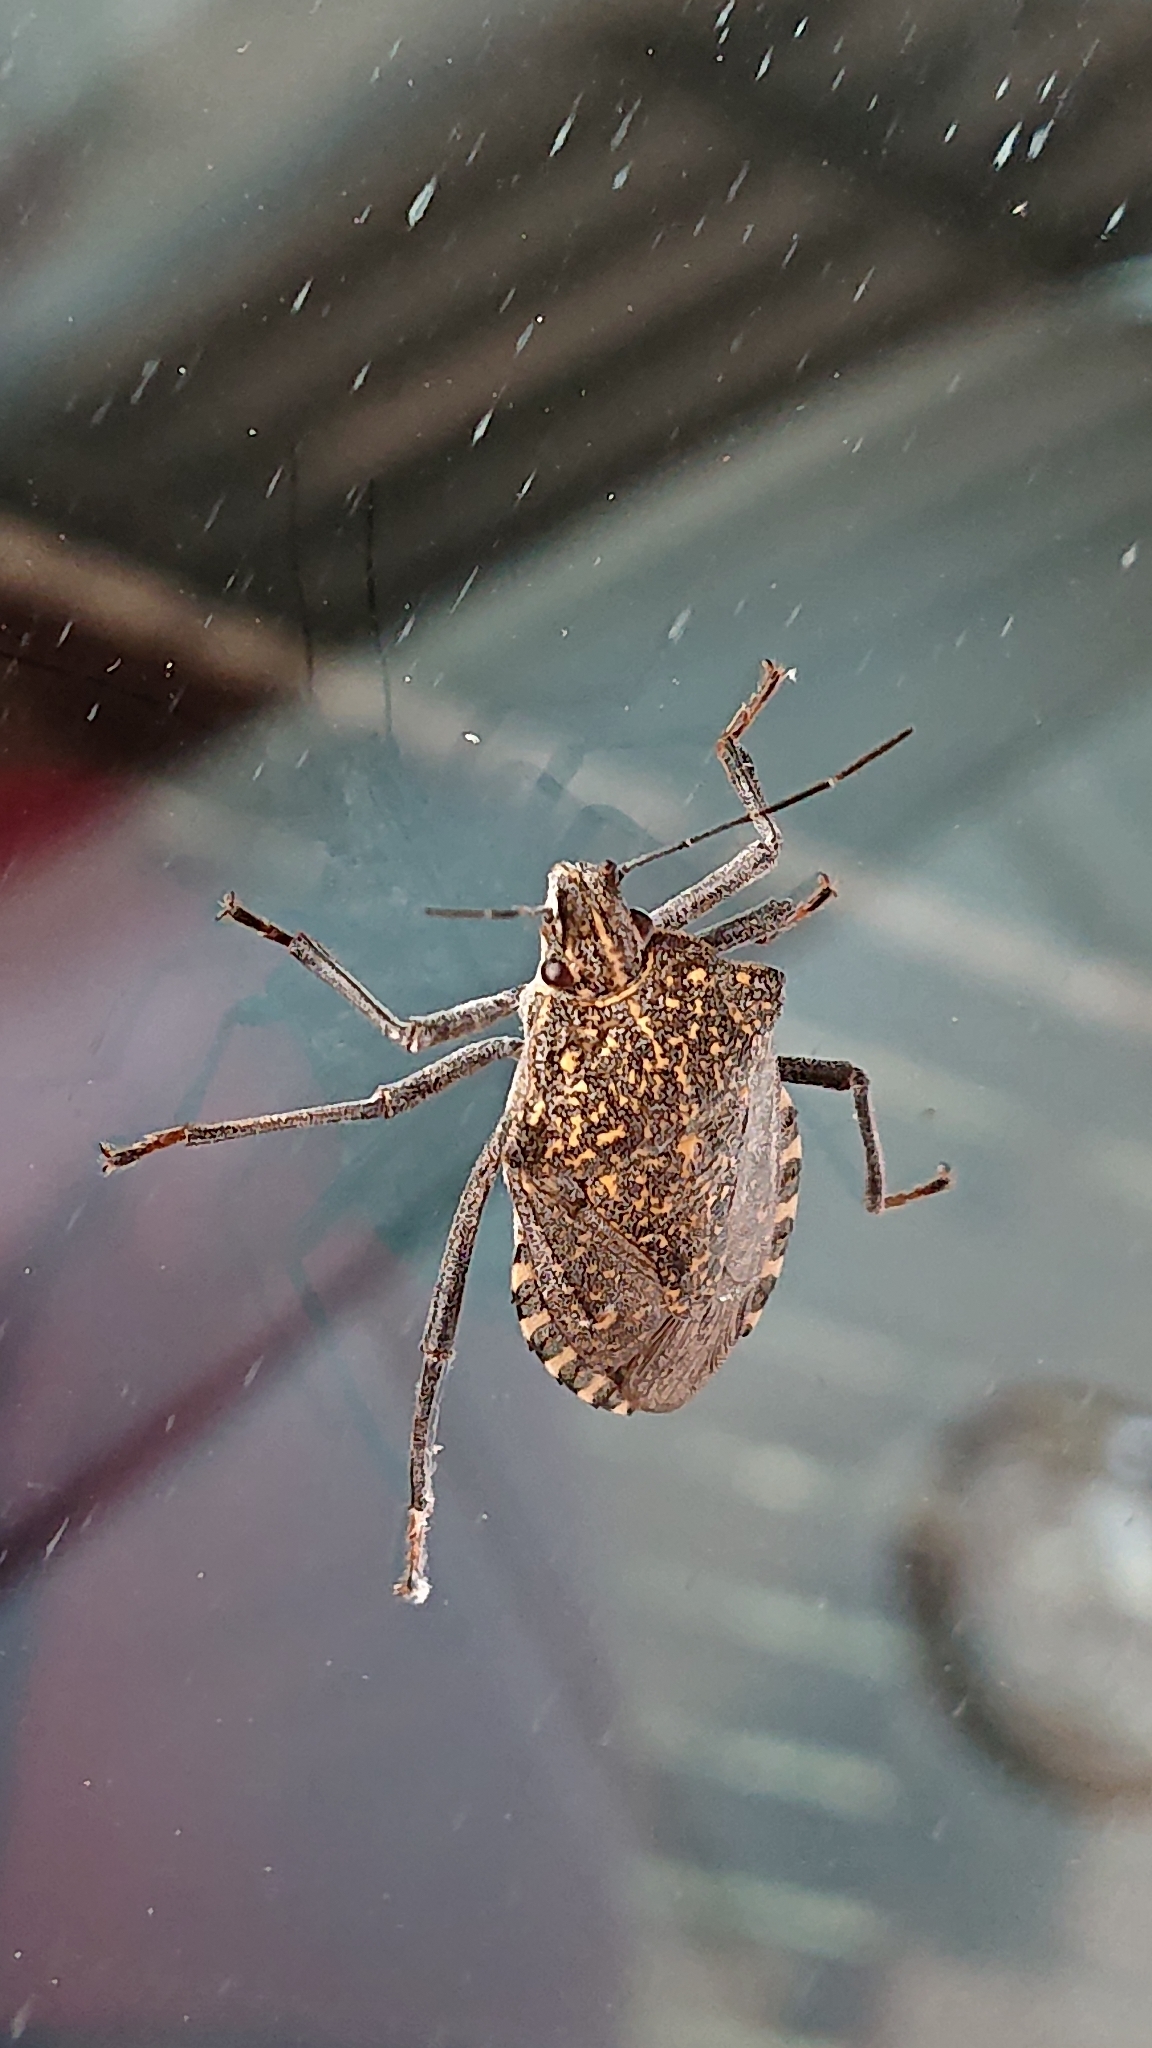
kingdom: Animalia
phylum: Arthropoda
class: Insecta
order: Hemiptera
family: Pentatomidae
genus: Apodiphus
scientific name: Apodiphus amygdali
